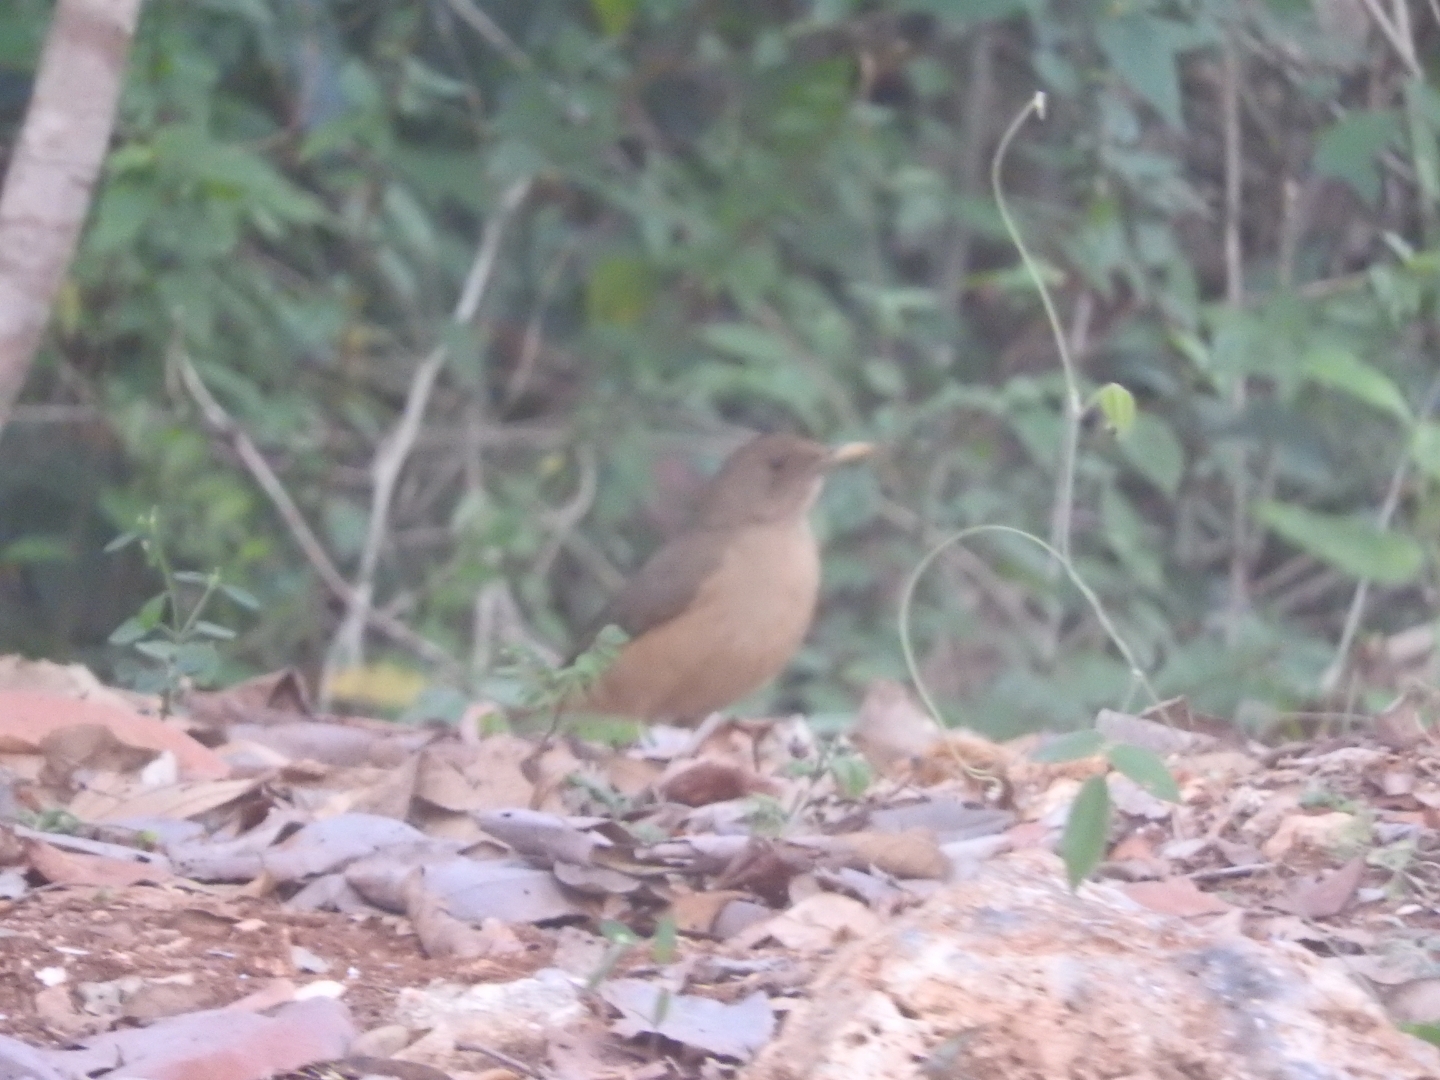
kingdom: Animalia
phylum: Chordata
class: Aves
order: Passeriformes
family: Turdidae
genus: Turdus
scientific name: Turdus grayi
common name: Clay-colored thrush
